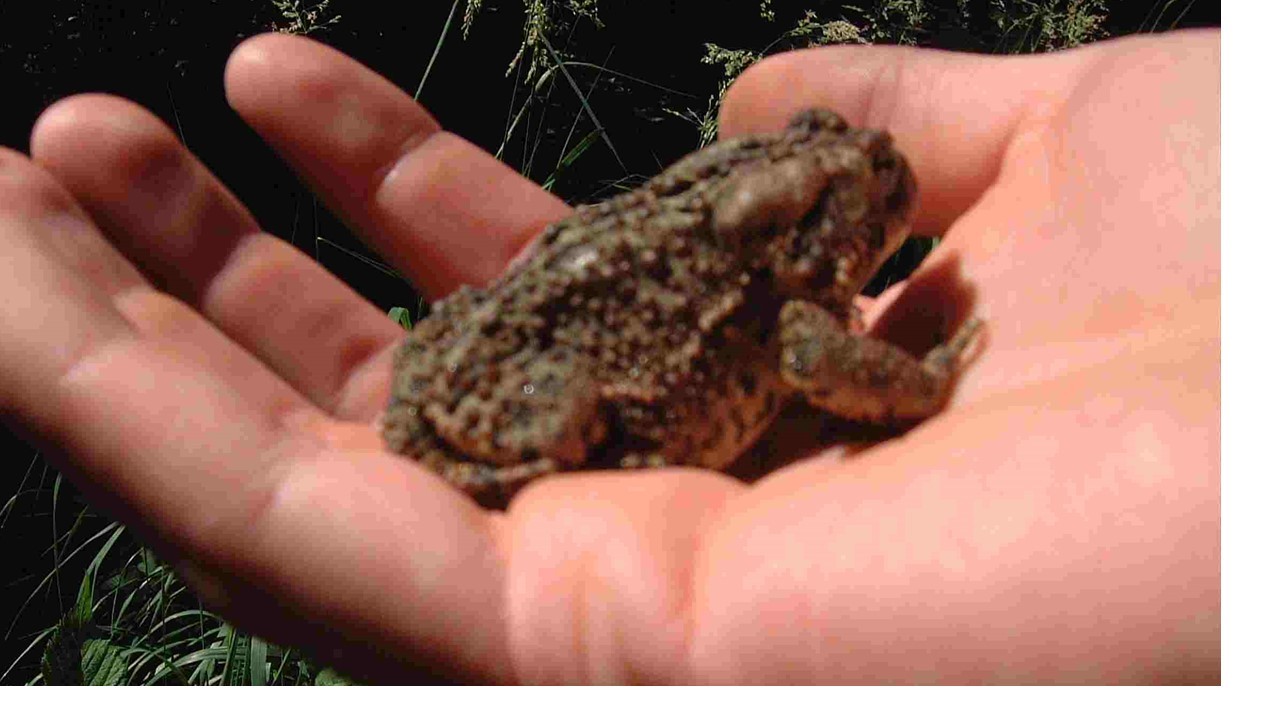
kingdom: Animalia
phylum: Chordata
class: Amphibia
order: Anura
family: Bufonidae
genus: Anaxyrus
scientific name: Anaxyrus americanus
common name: American toad
